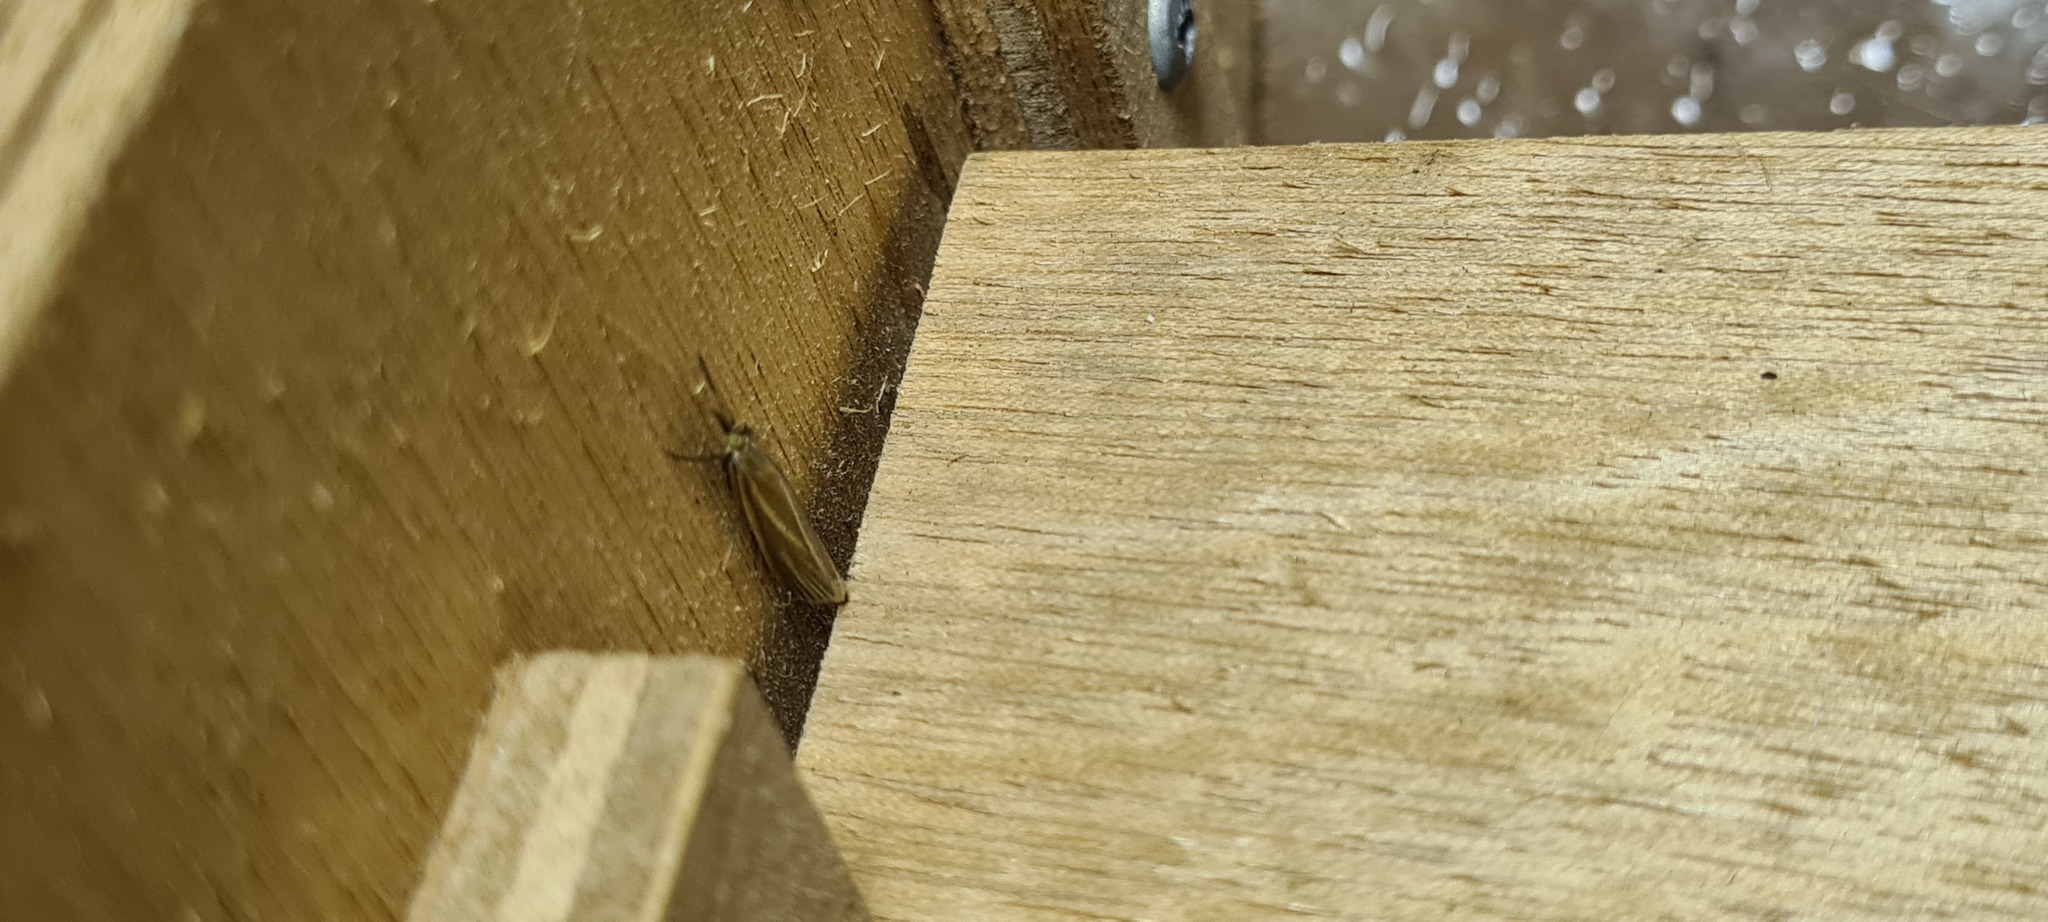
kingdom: Animalia
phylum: Arthropoda
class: Insecta
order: Lepidoptera
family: Crambidae
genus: Crambus
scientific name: Crambus perlellus
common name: Yellow satin veneer
